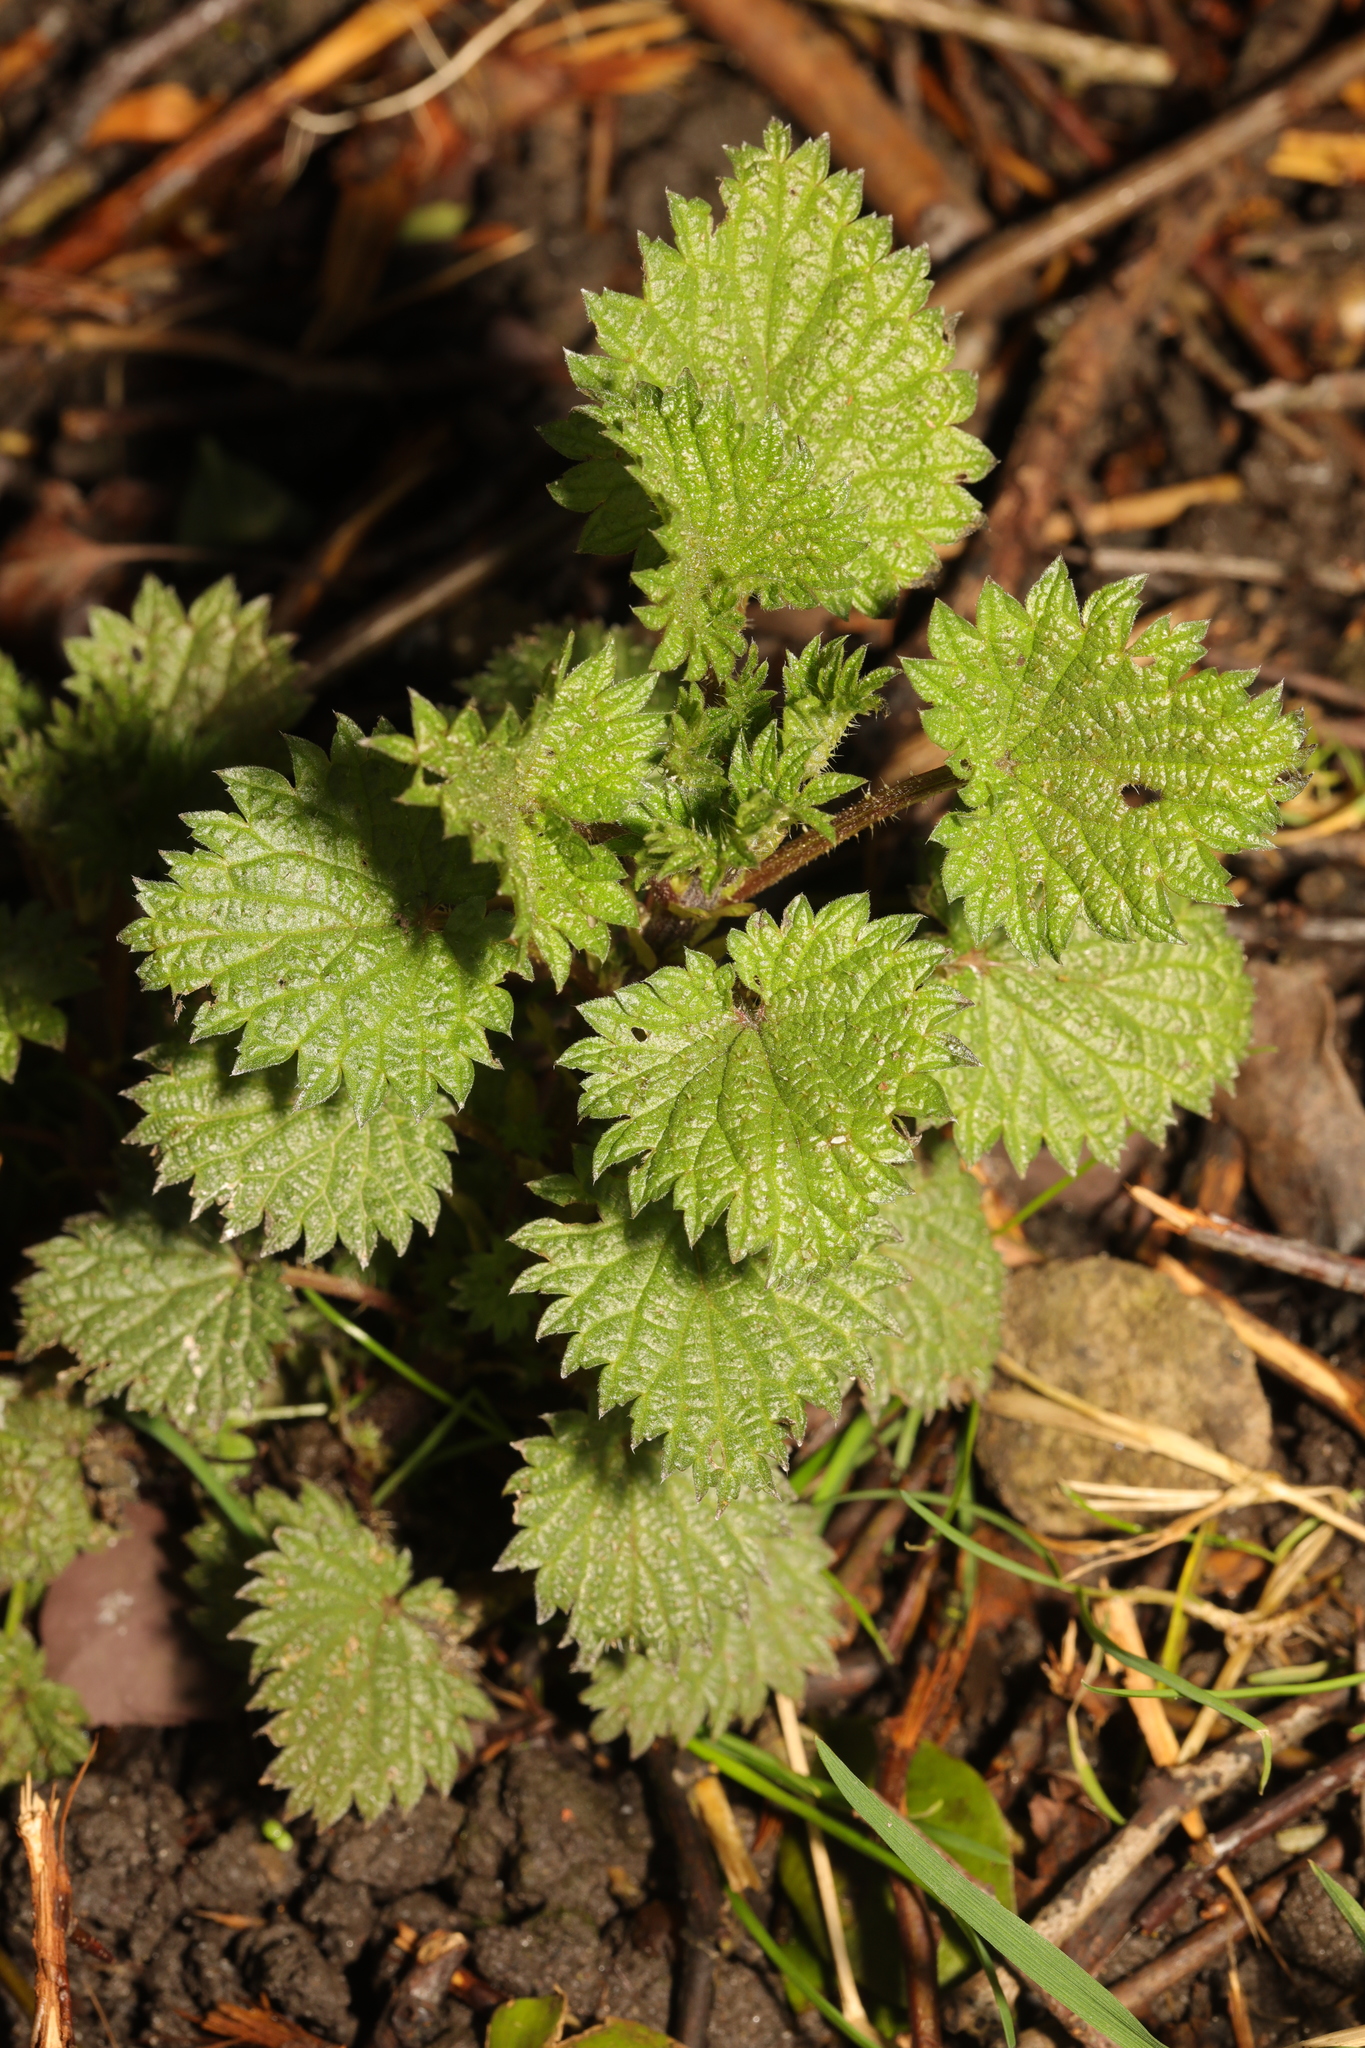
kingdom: Plantae
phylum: Tracheophyta
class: Magnoliopsida
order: Rosales
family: Urticaceae
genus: Urtica
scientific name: Urtica dioica
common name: Common nettle
